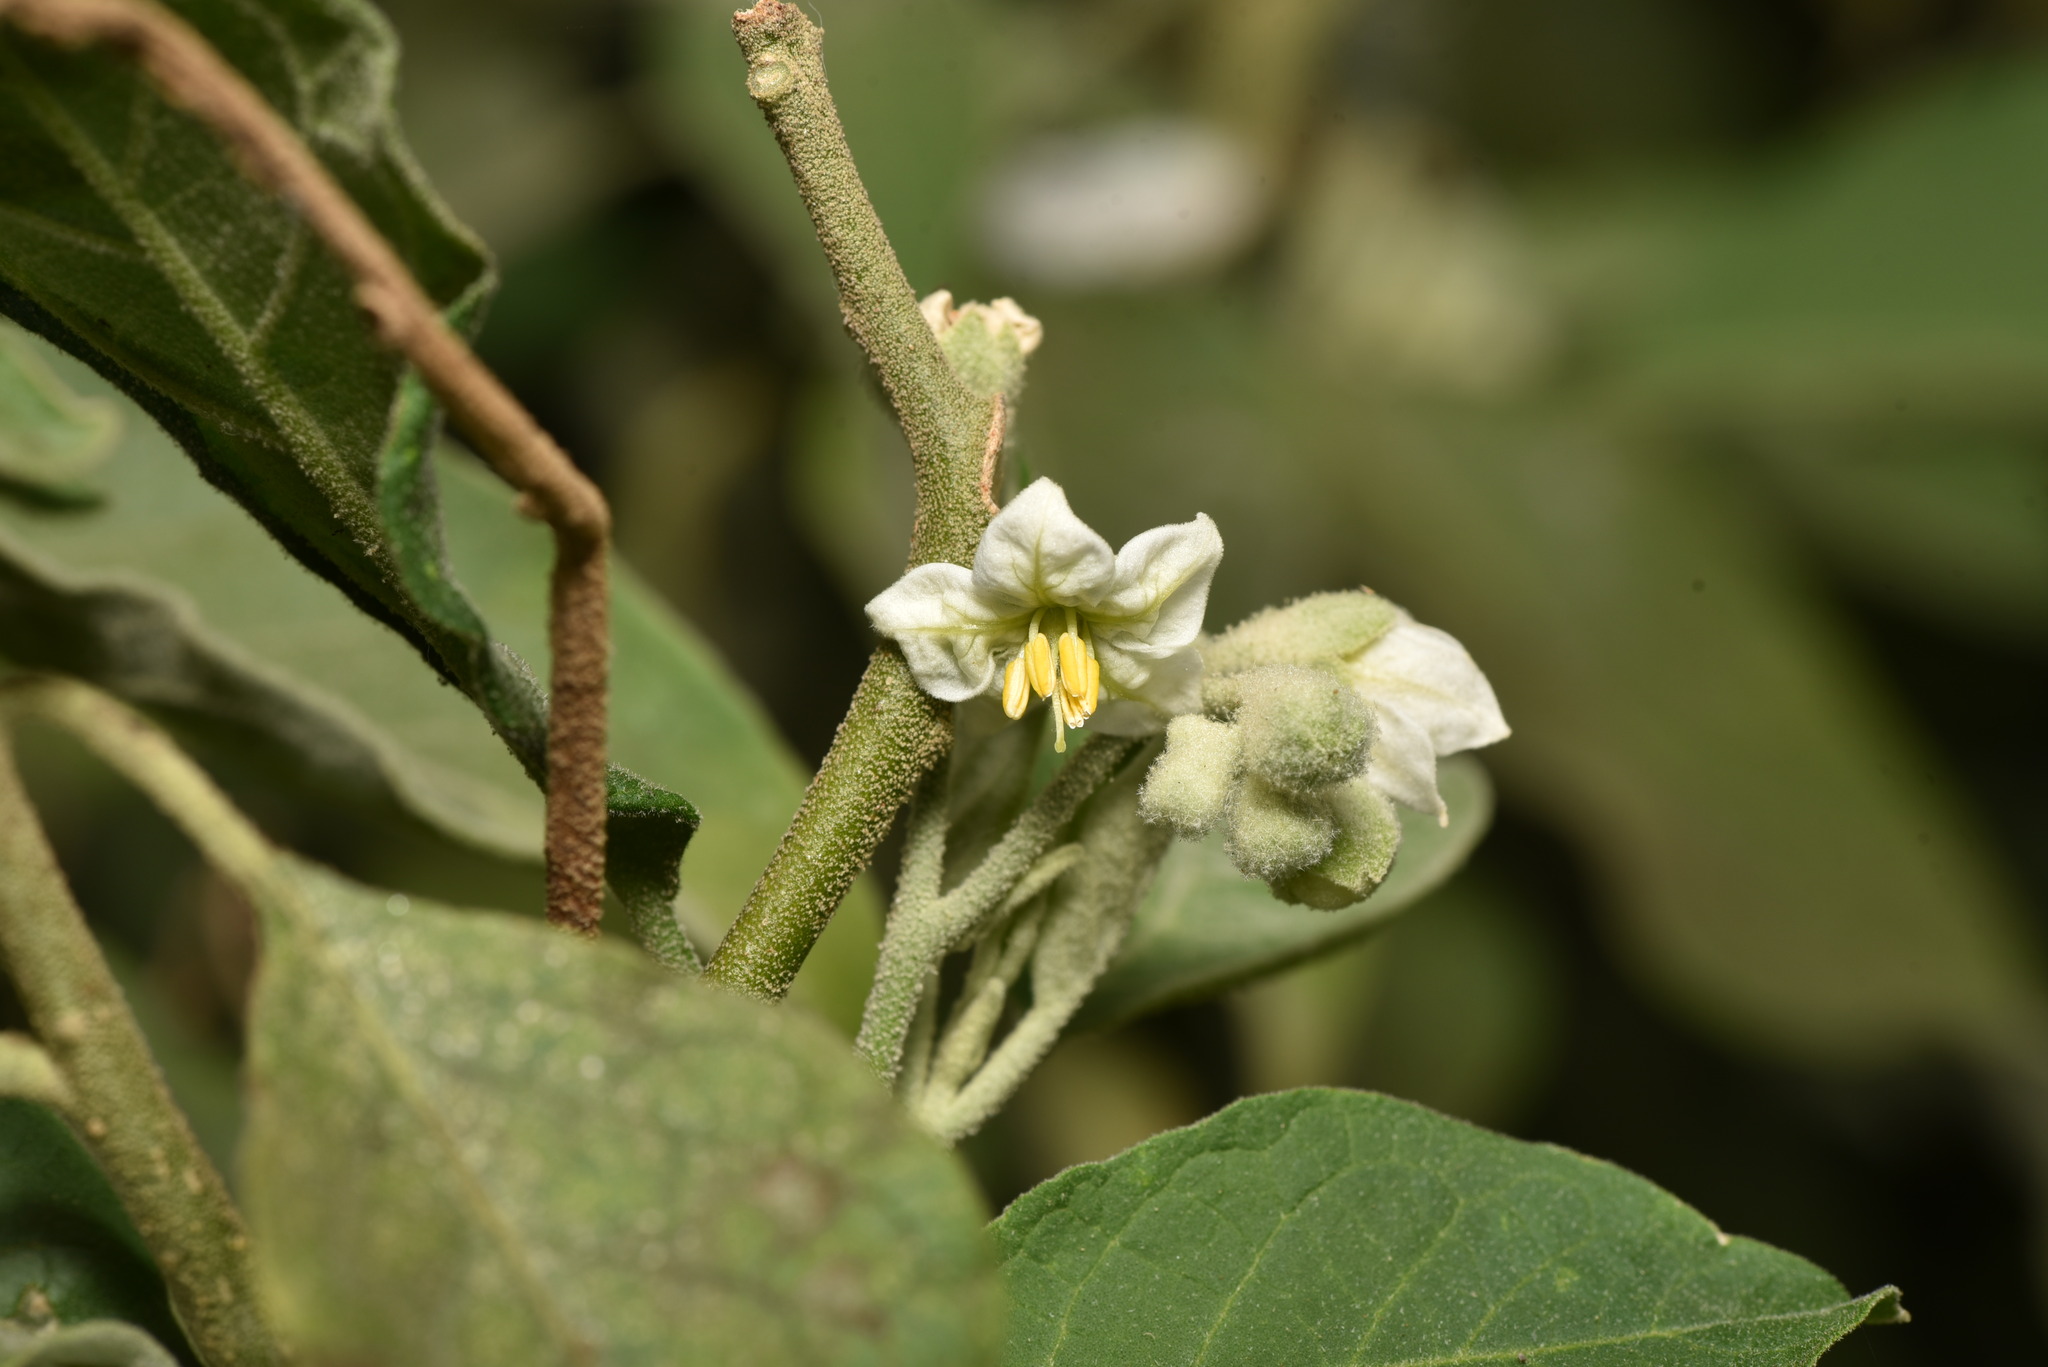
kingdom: Plantae
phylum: Tracheophyta
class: Magnoliopsida
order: Solanales
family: Solanaceae
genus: Solanum
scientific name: Solanum erianthum
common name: Tobacco-tree
